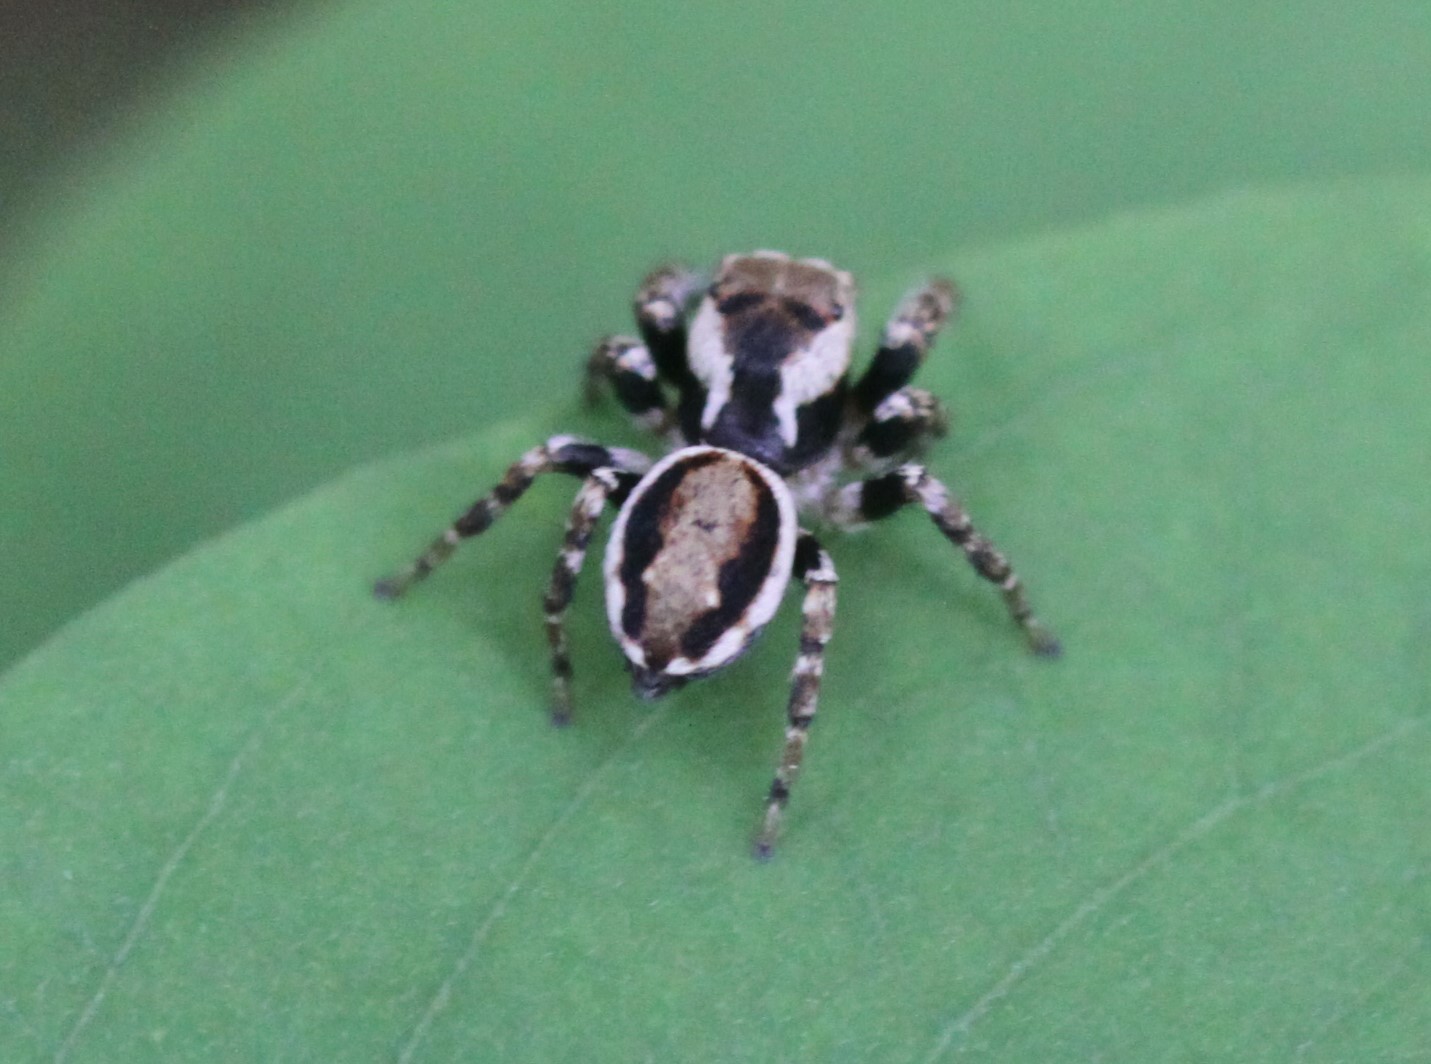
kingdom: Animalia
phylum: Arthropoda
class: Arachnida
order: Araneae
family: Salticidae
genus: Evarcha
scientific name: Evarcha falcata
